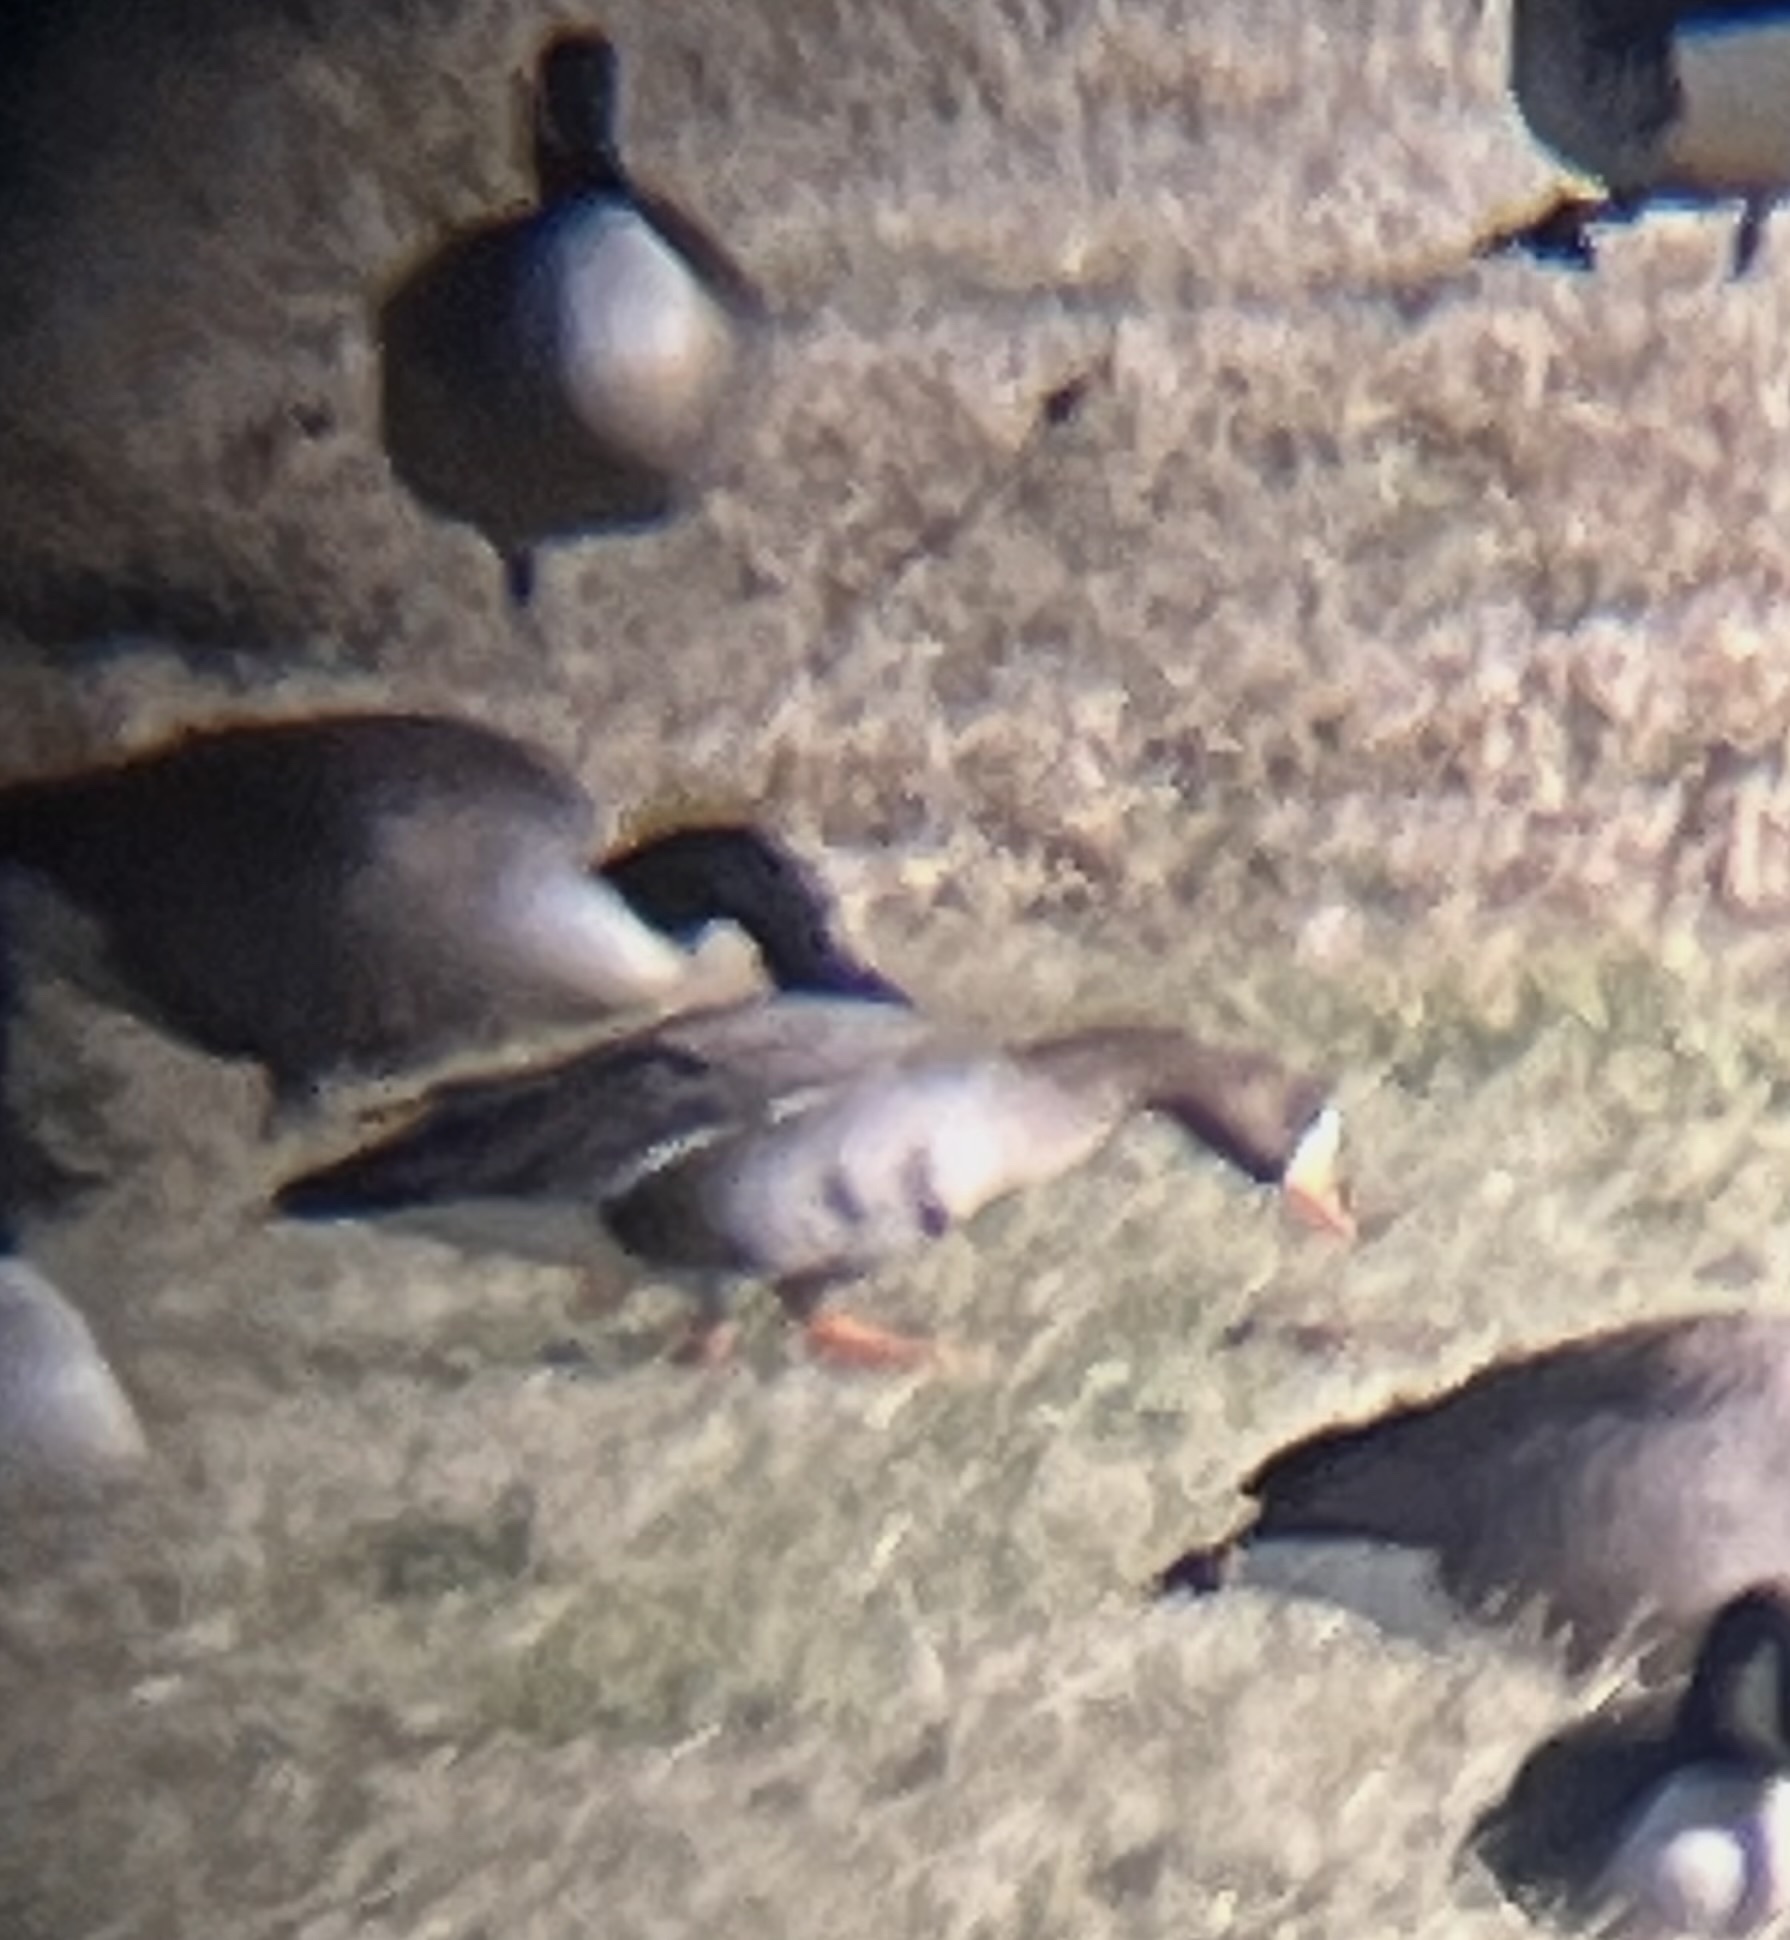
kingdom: Animalia
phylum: Chordata
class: Aves
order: Anseriformes
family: Anatidae
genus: Anser
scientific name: Anser albifrons
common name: Greater white-fronted goose
